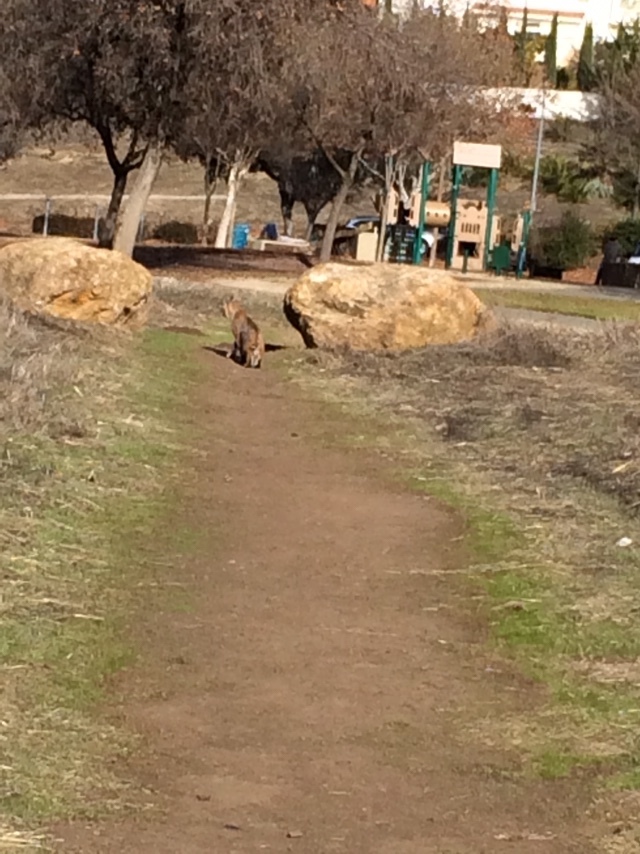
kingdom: Animalia
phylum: Chordata
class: Mammalia
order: Carnivora
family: Felidae
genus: Lynx
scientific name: Lynx rufus
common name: Bobcat
